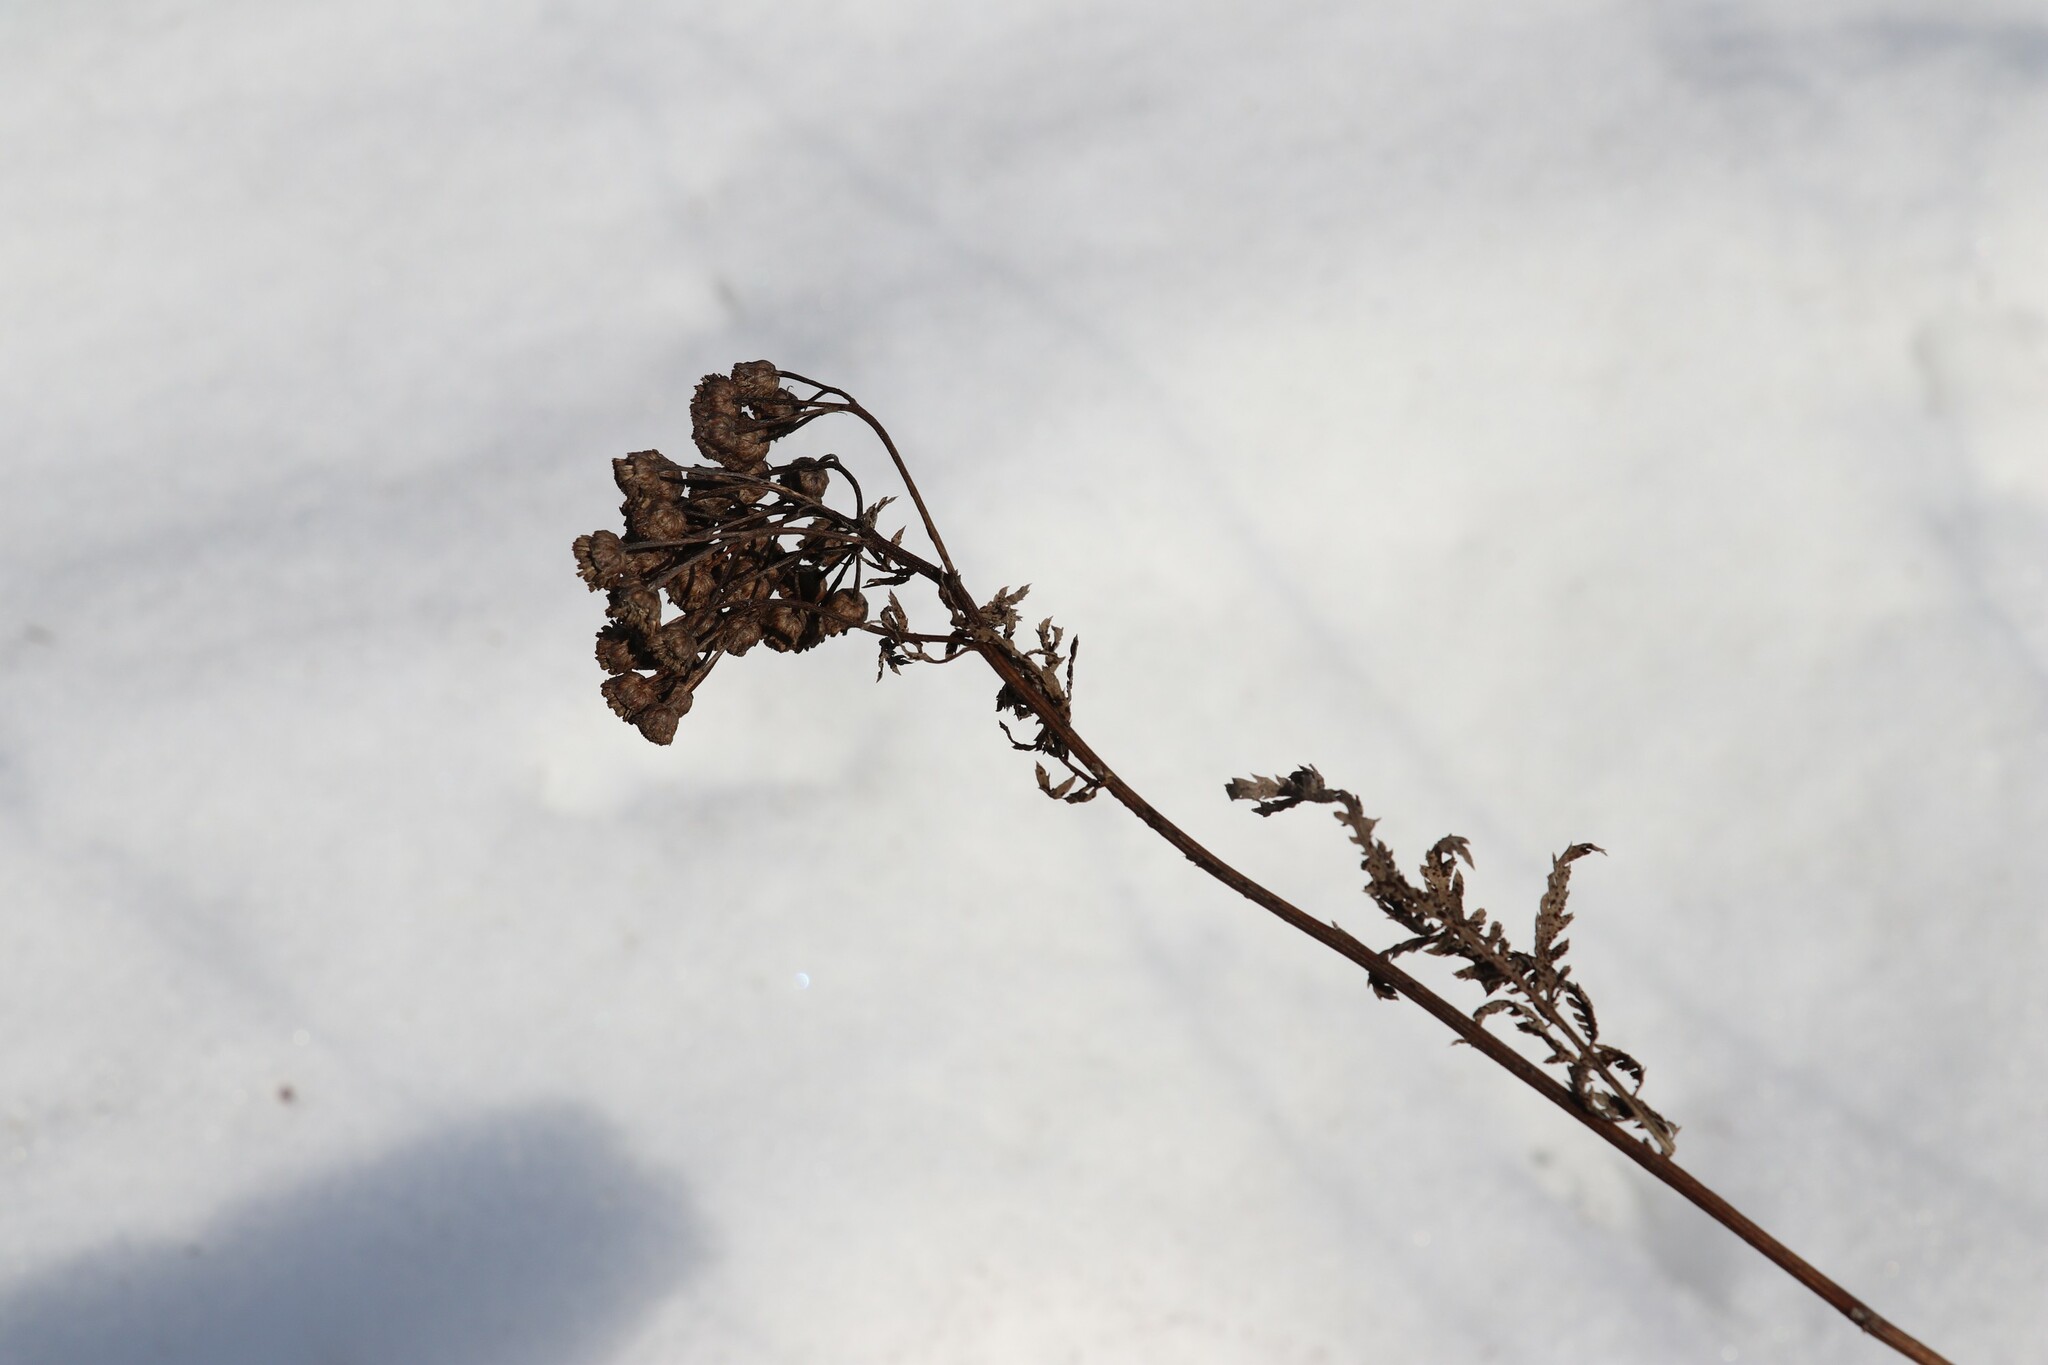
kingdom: Plantae
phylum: Tracheophyta
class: Magnoliopsida
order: Asterales
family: Asteraceae
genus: Tanacetum
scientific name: Tanacetum vulgare
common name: Common tansy
